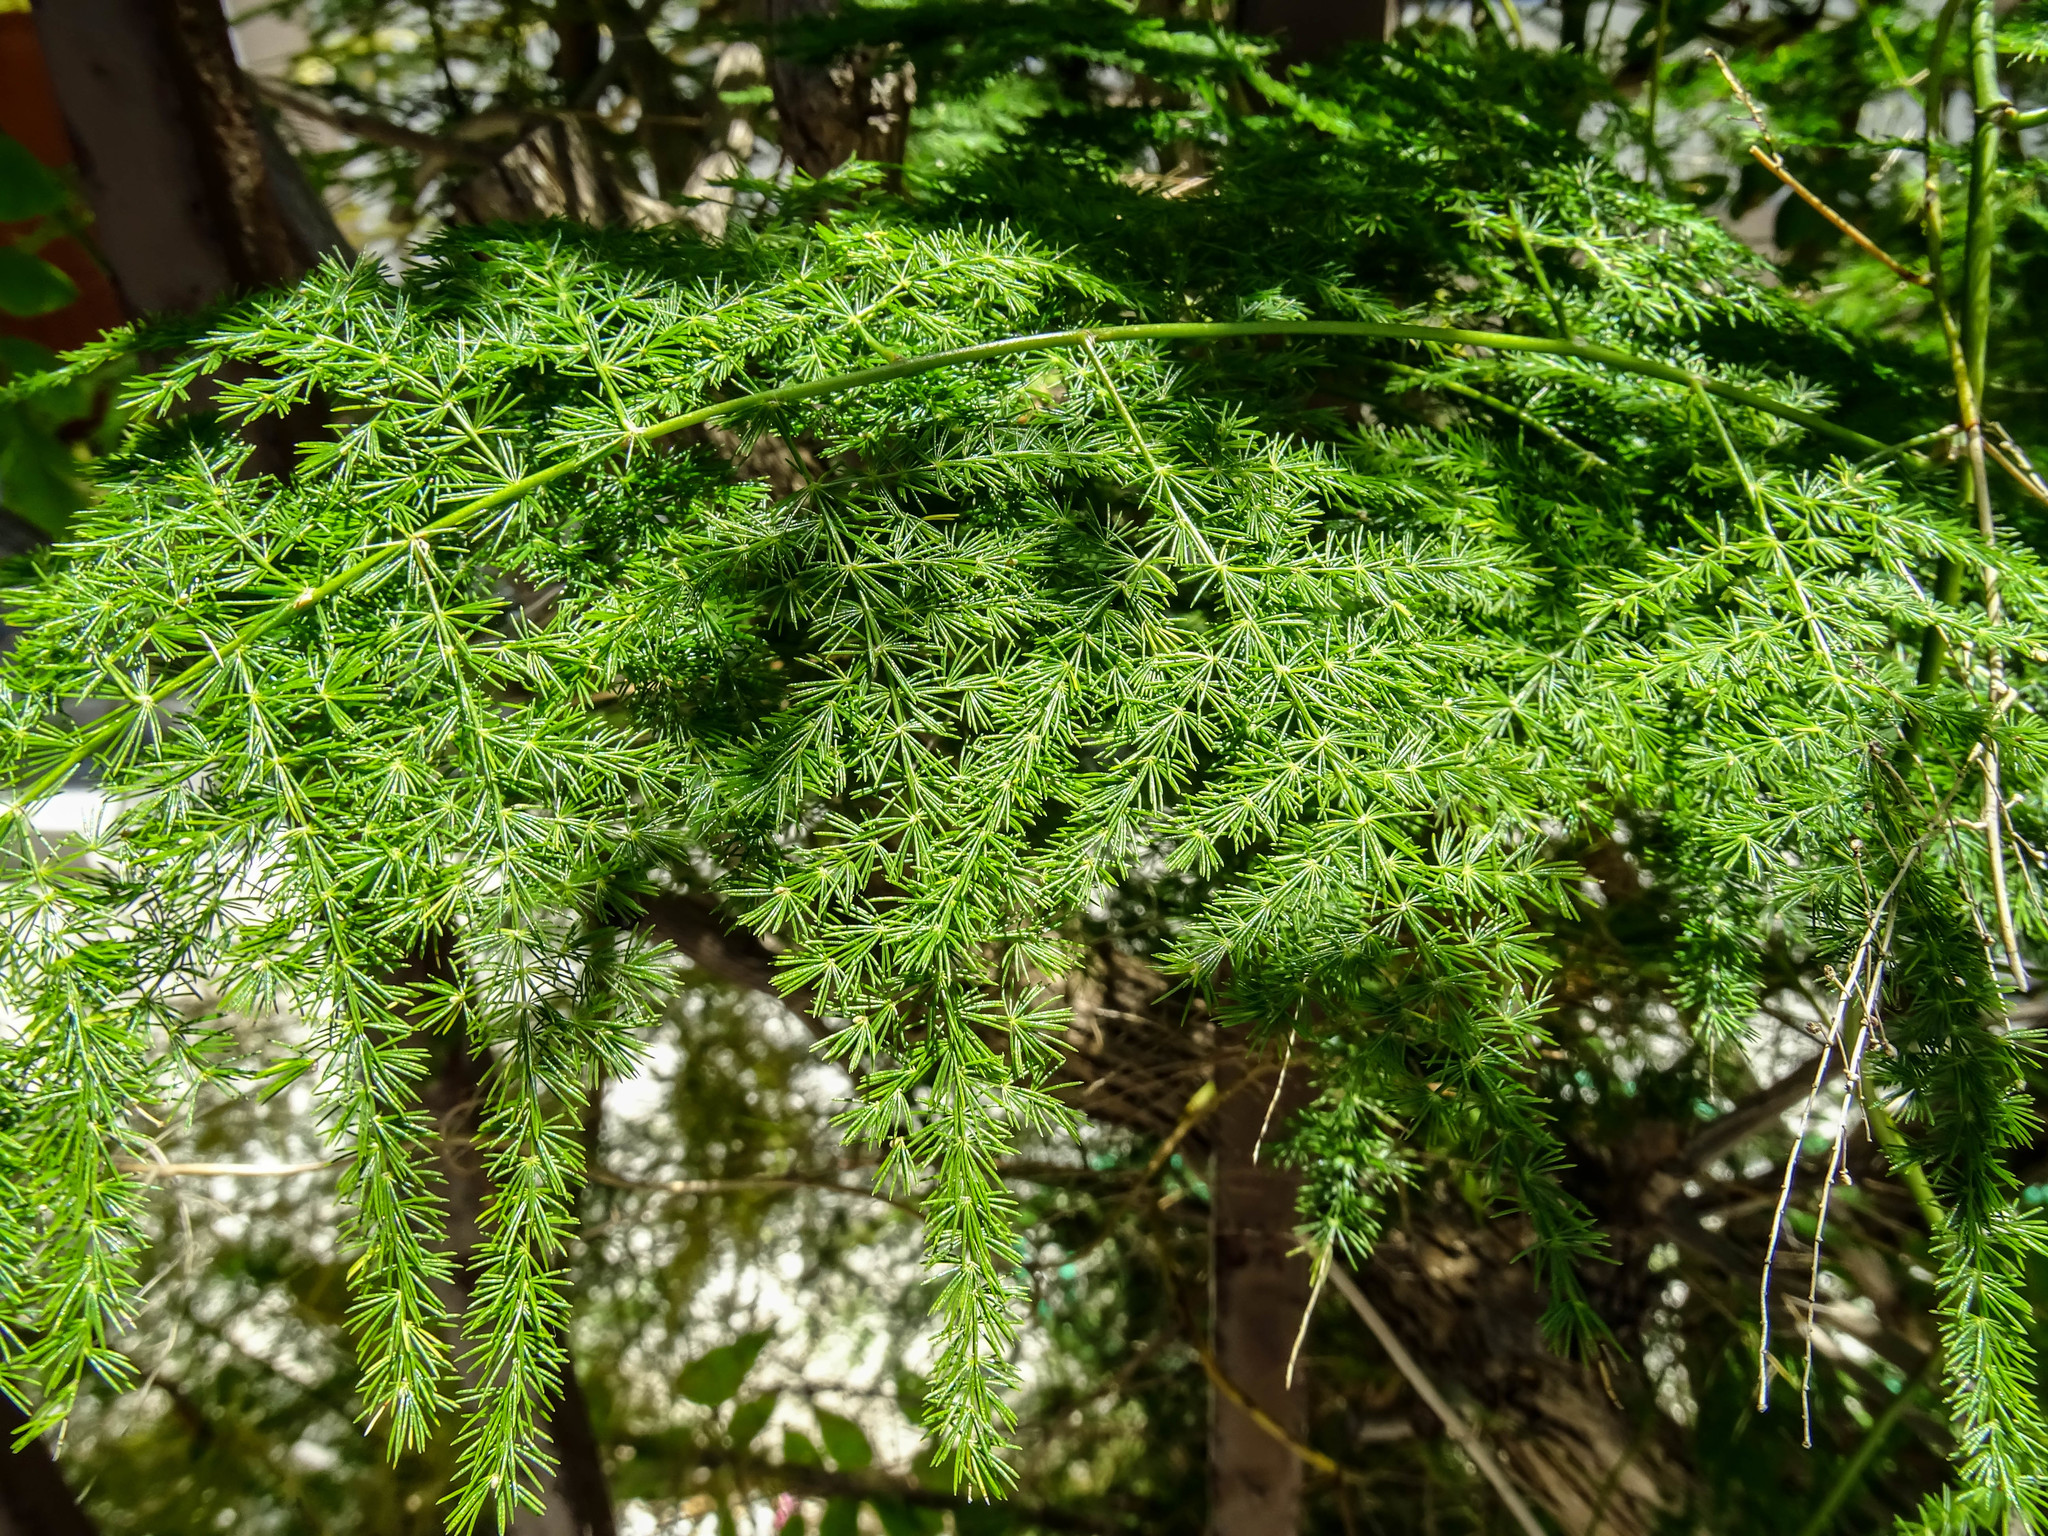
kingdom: Plantae
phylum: Tracheophyta
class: Liliopsida
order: Asparagales
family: Asparagaceae
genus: Asparagus
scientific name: Asparagus setaceus
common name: Common asparagus fern
